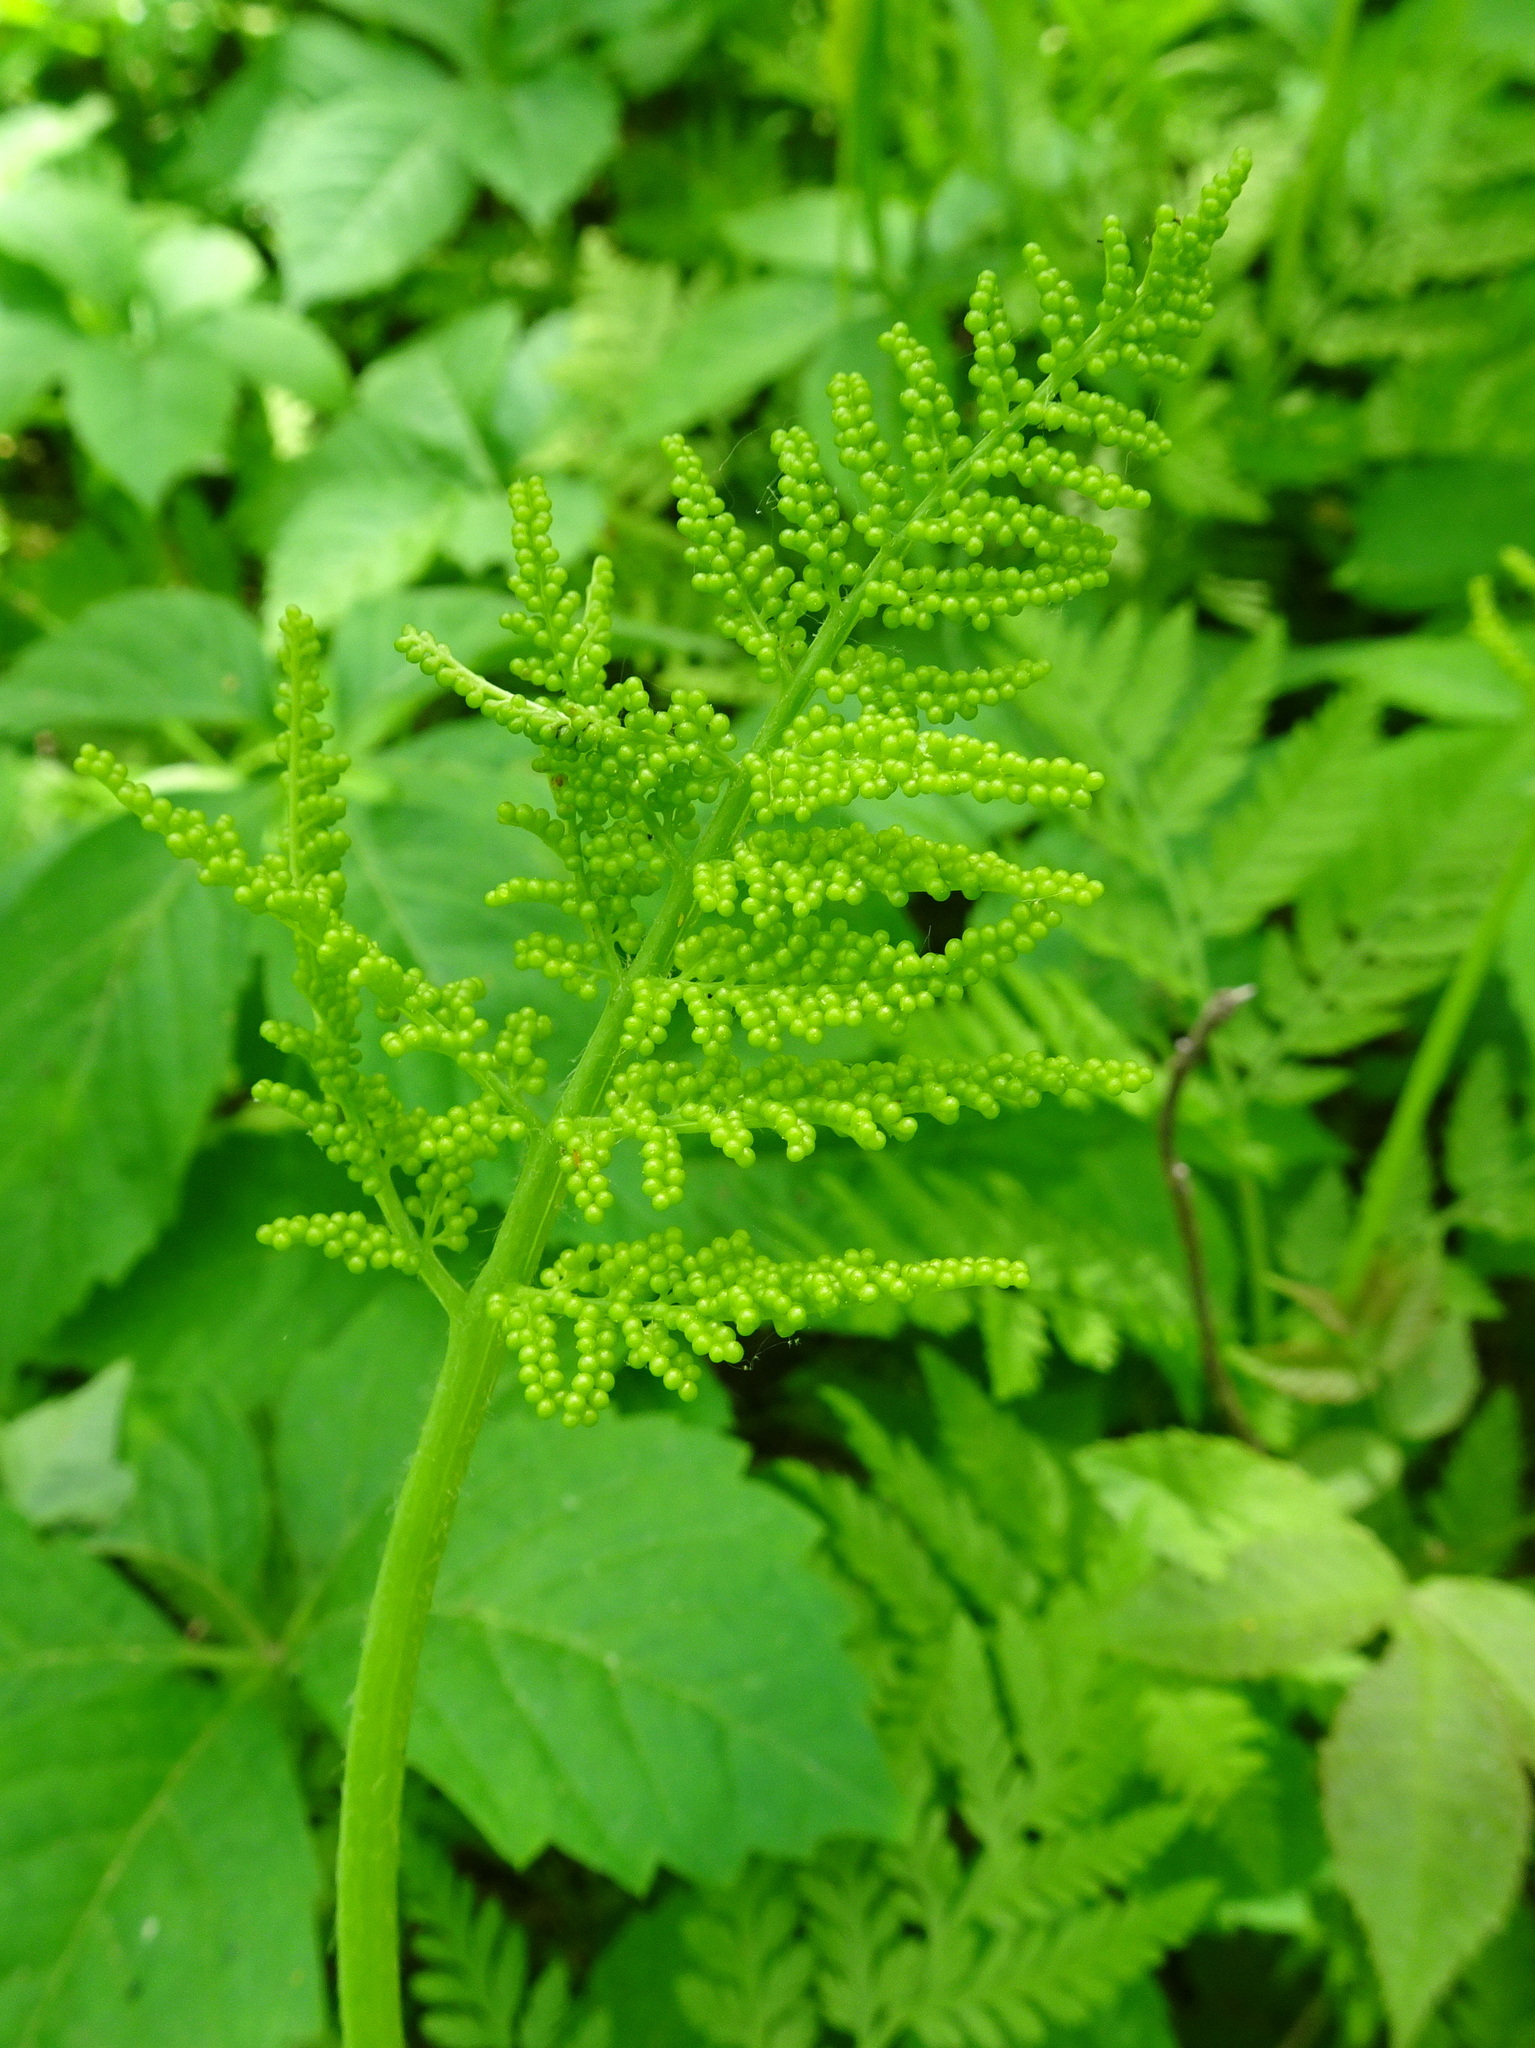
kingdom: Plantae
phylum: Tracheophyta
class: Polypodiopsida
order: Ophioglossales
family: Ophioglossaceae
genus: Botrypus
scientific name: Botrypus virginianus
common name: Common grapefern
